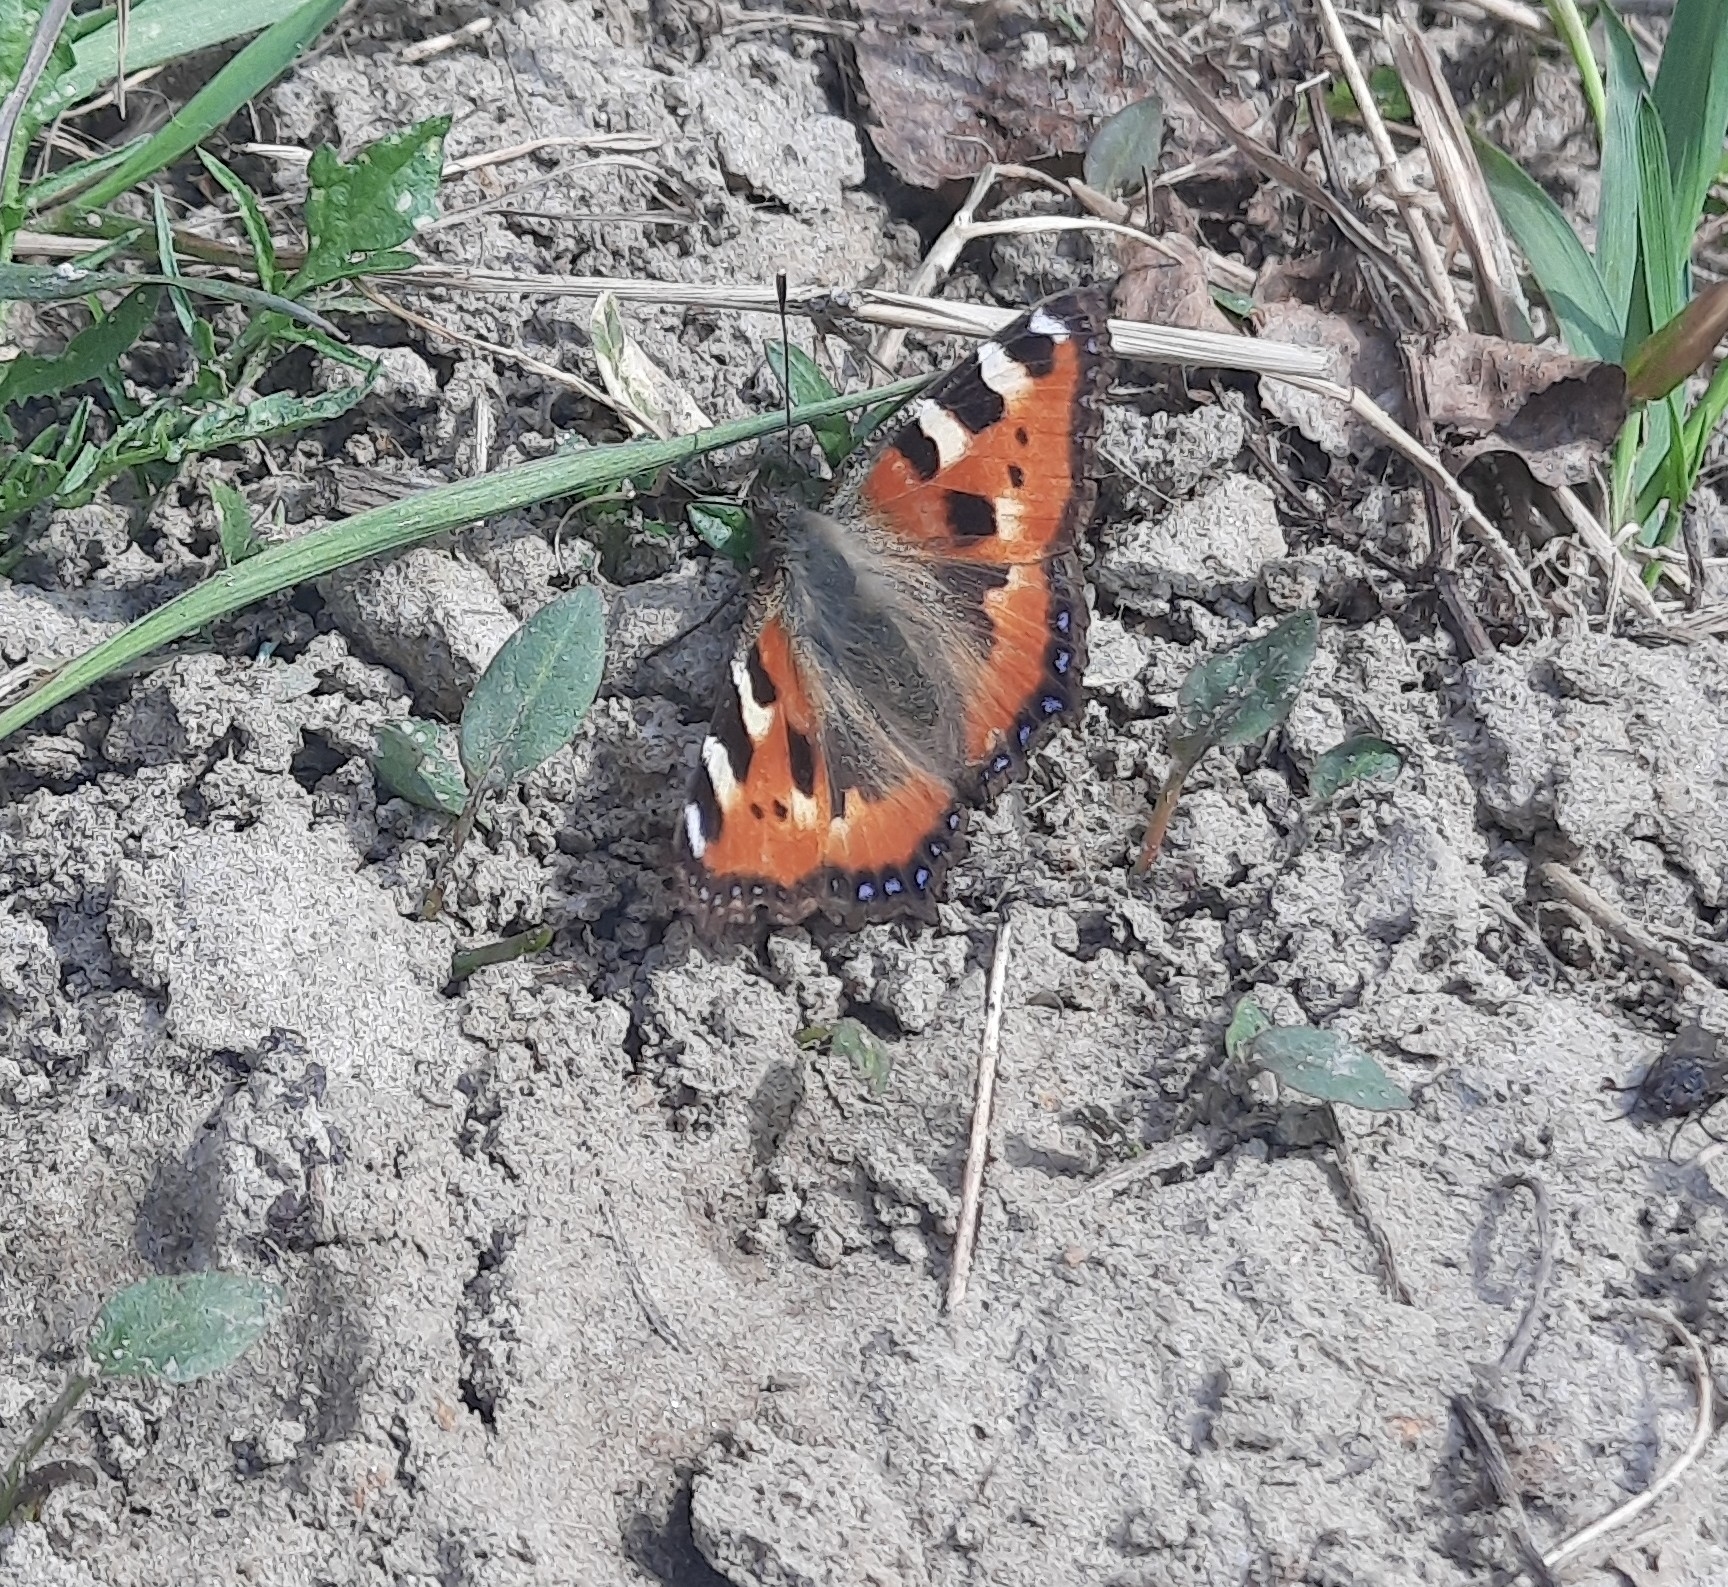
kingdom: Animalia
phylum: Arthropoda
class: Insecta
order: Lepidoptera
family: Nymphalidae
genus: Aglais
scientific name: Aglais urticae
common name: Small tortoiseshell
